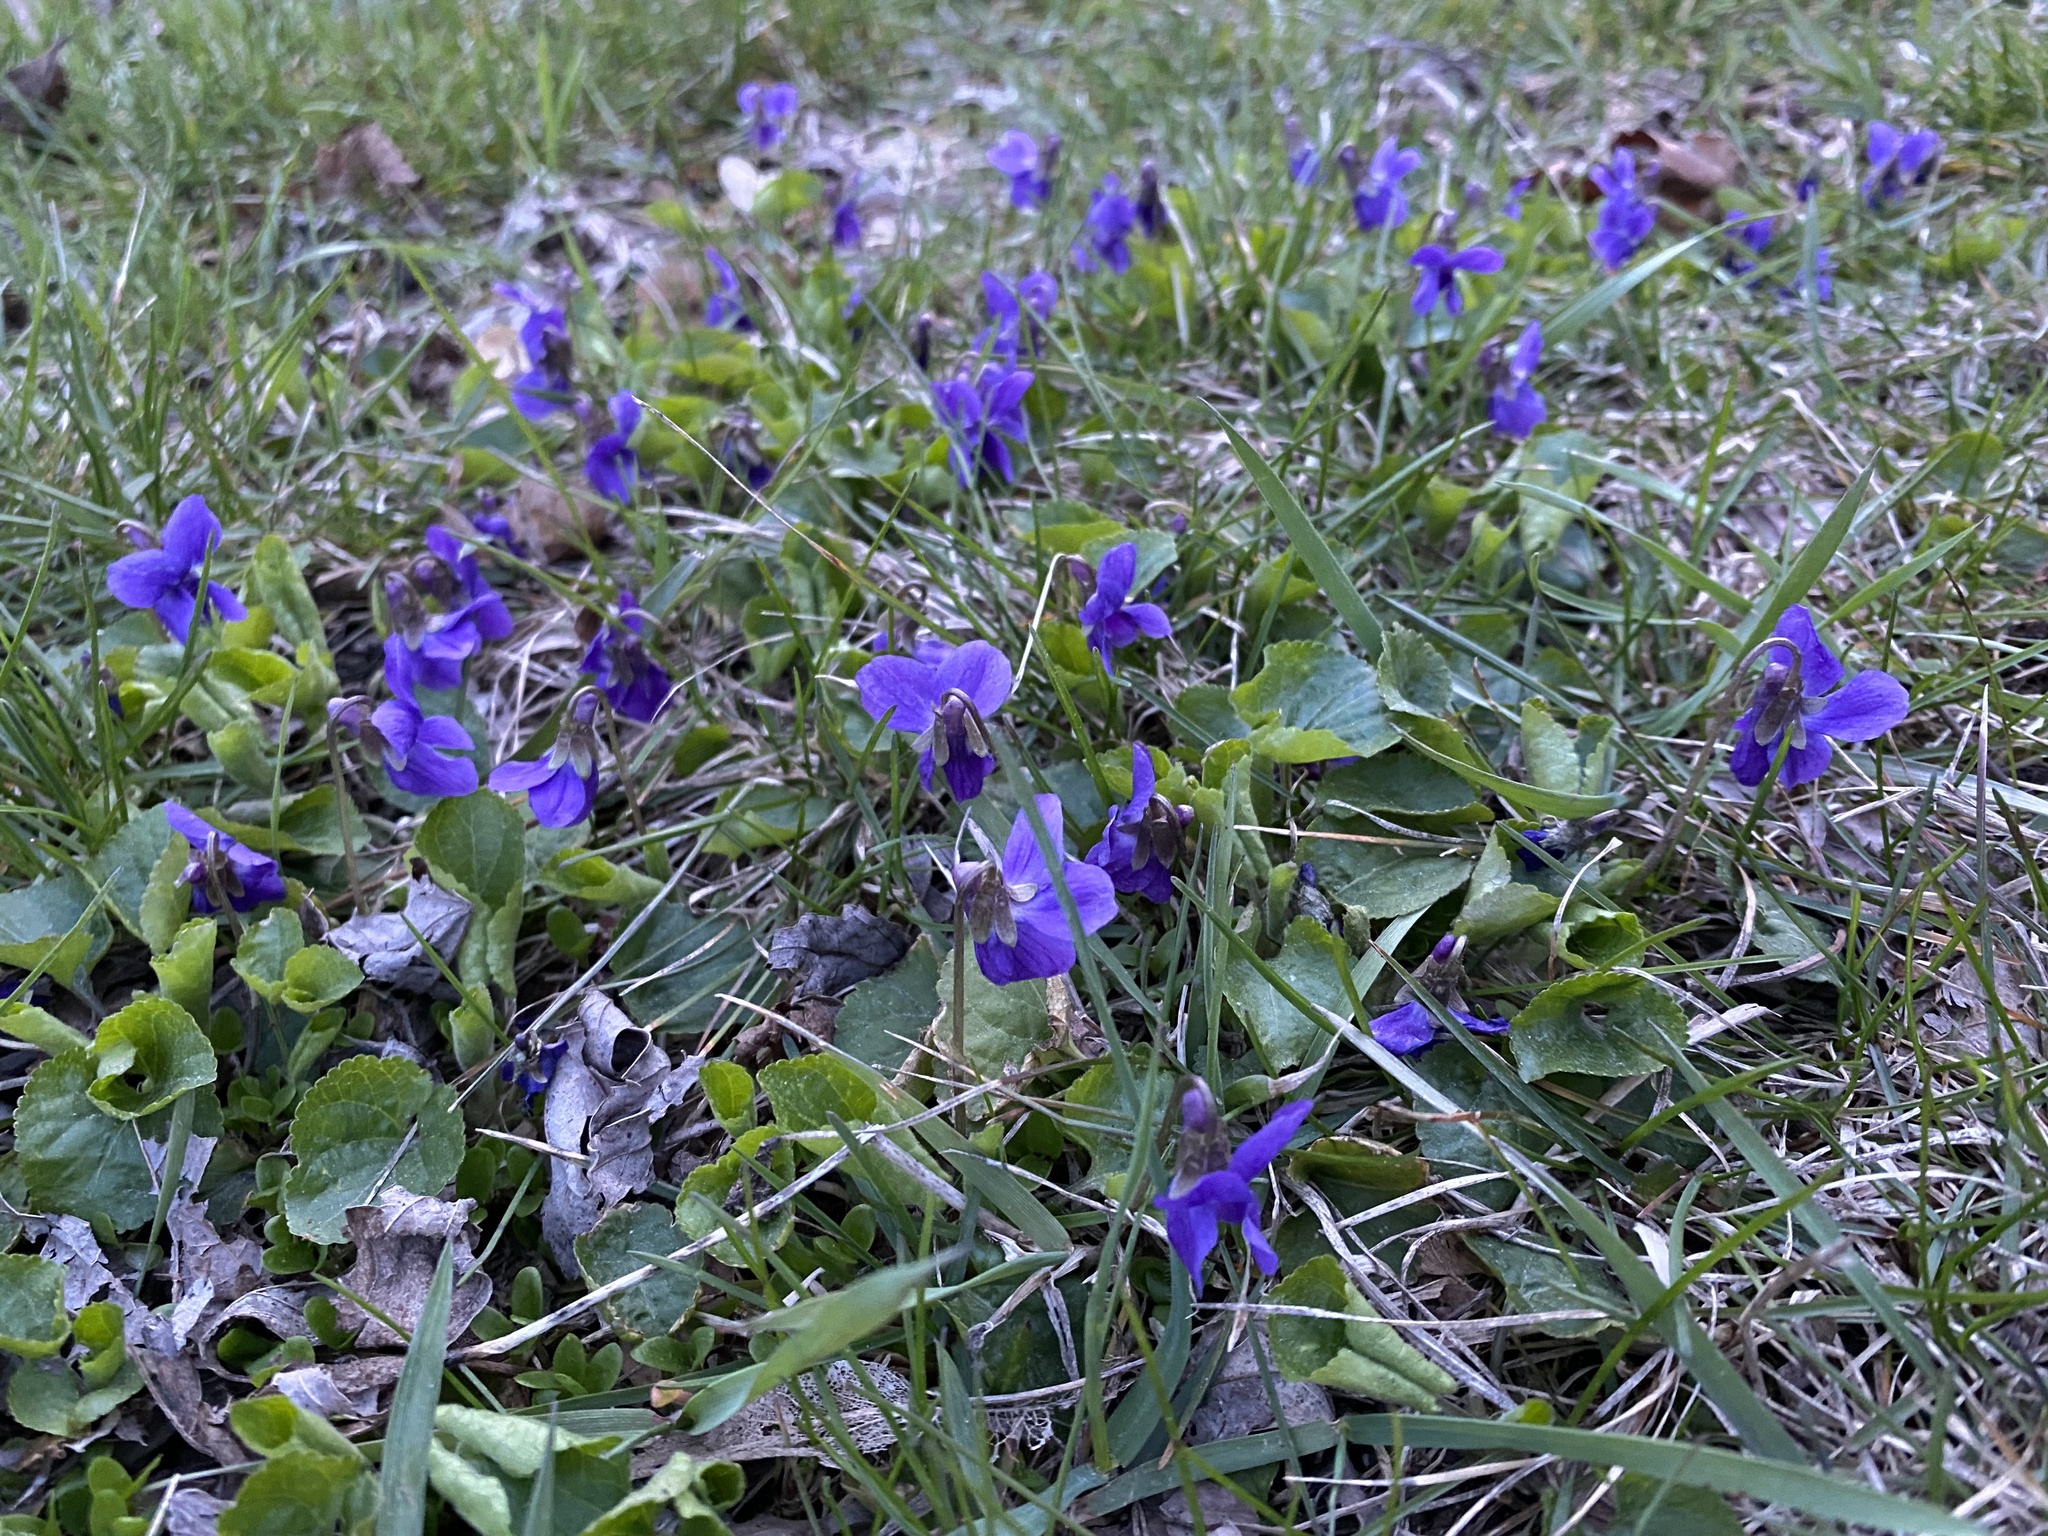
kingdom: Plantae
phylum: Tracheophyta
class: Magnoliopsida
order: Malpighiales
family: Violaceae
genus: Viola
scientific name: Viola sororia
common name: Dooryard violet
